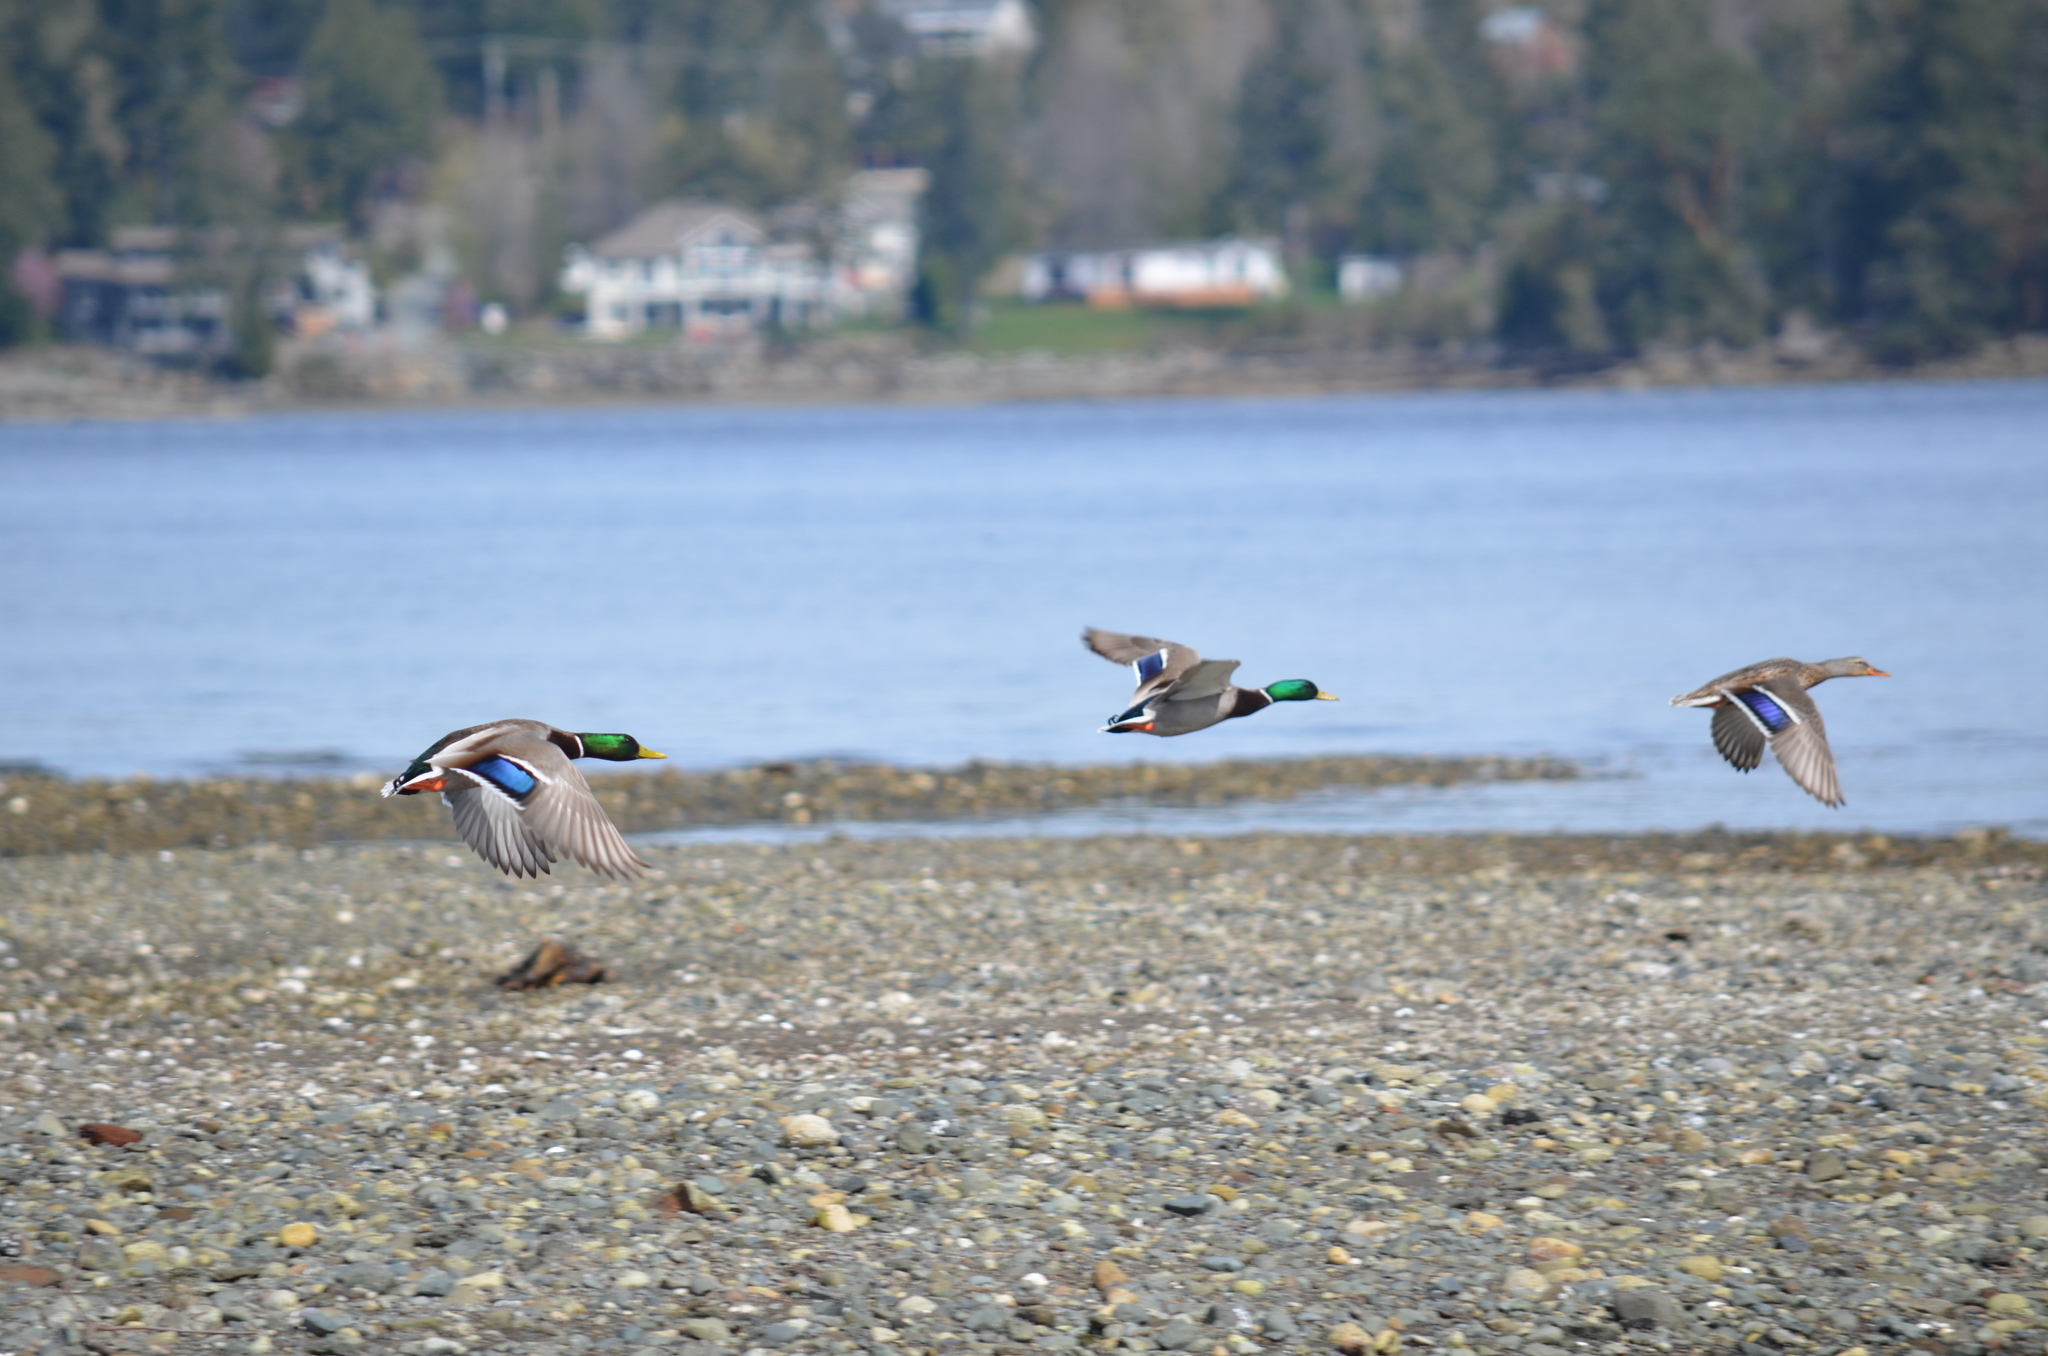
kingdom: Animalia
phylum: Chordata
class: Aves
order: Anseriformes
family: Anatidae
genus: Anas
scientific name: Anas platyrhynchos
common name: Mallard
